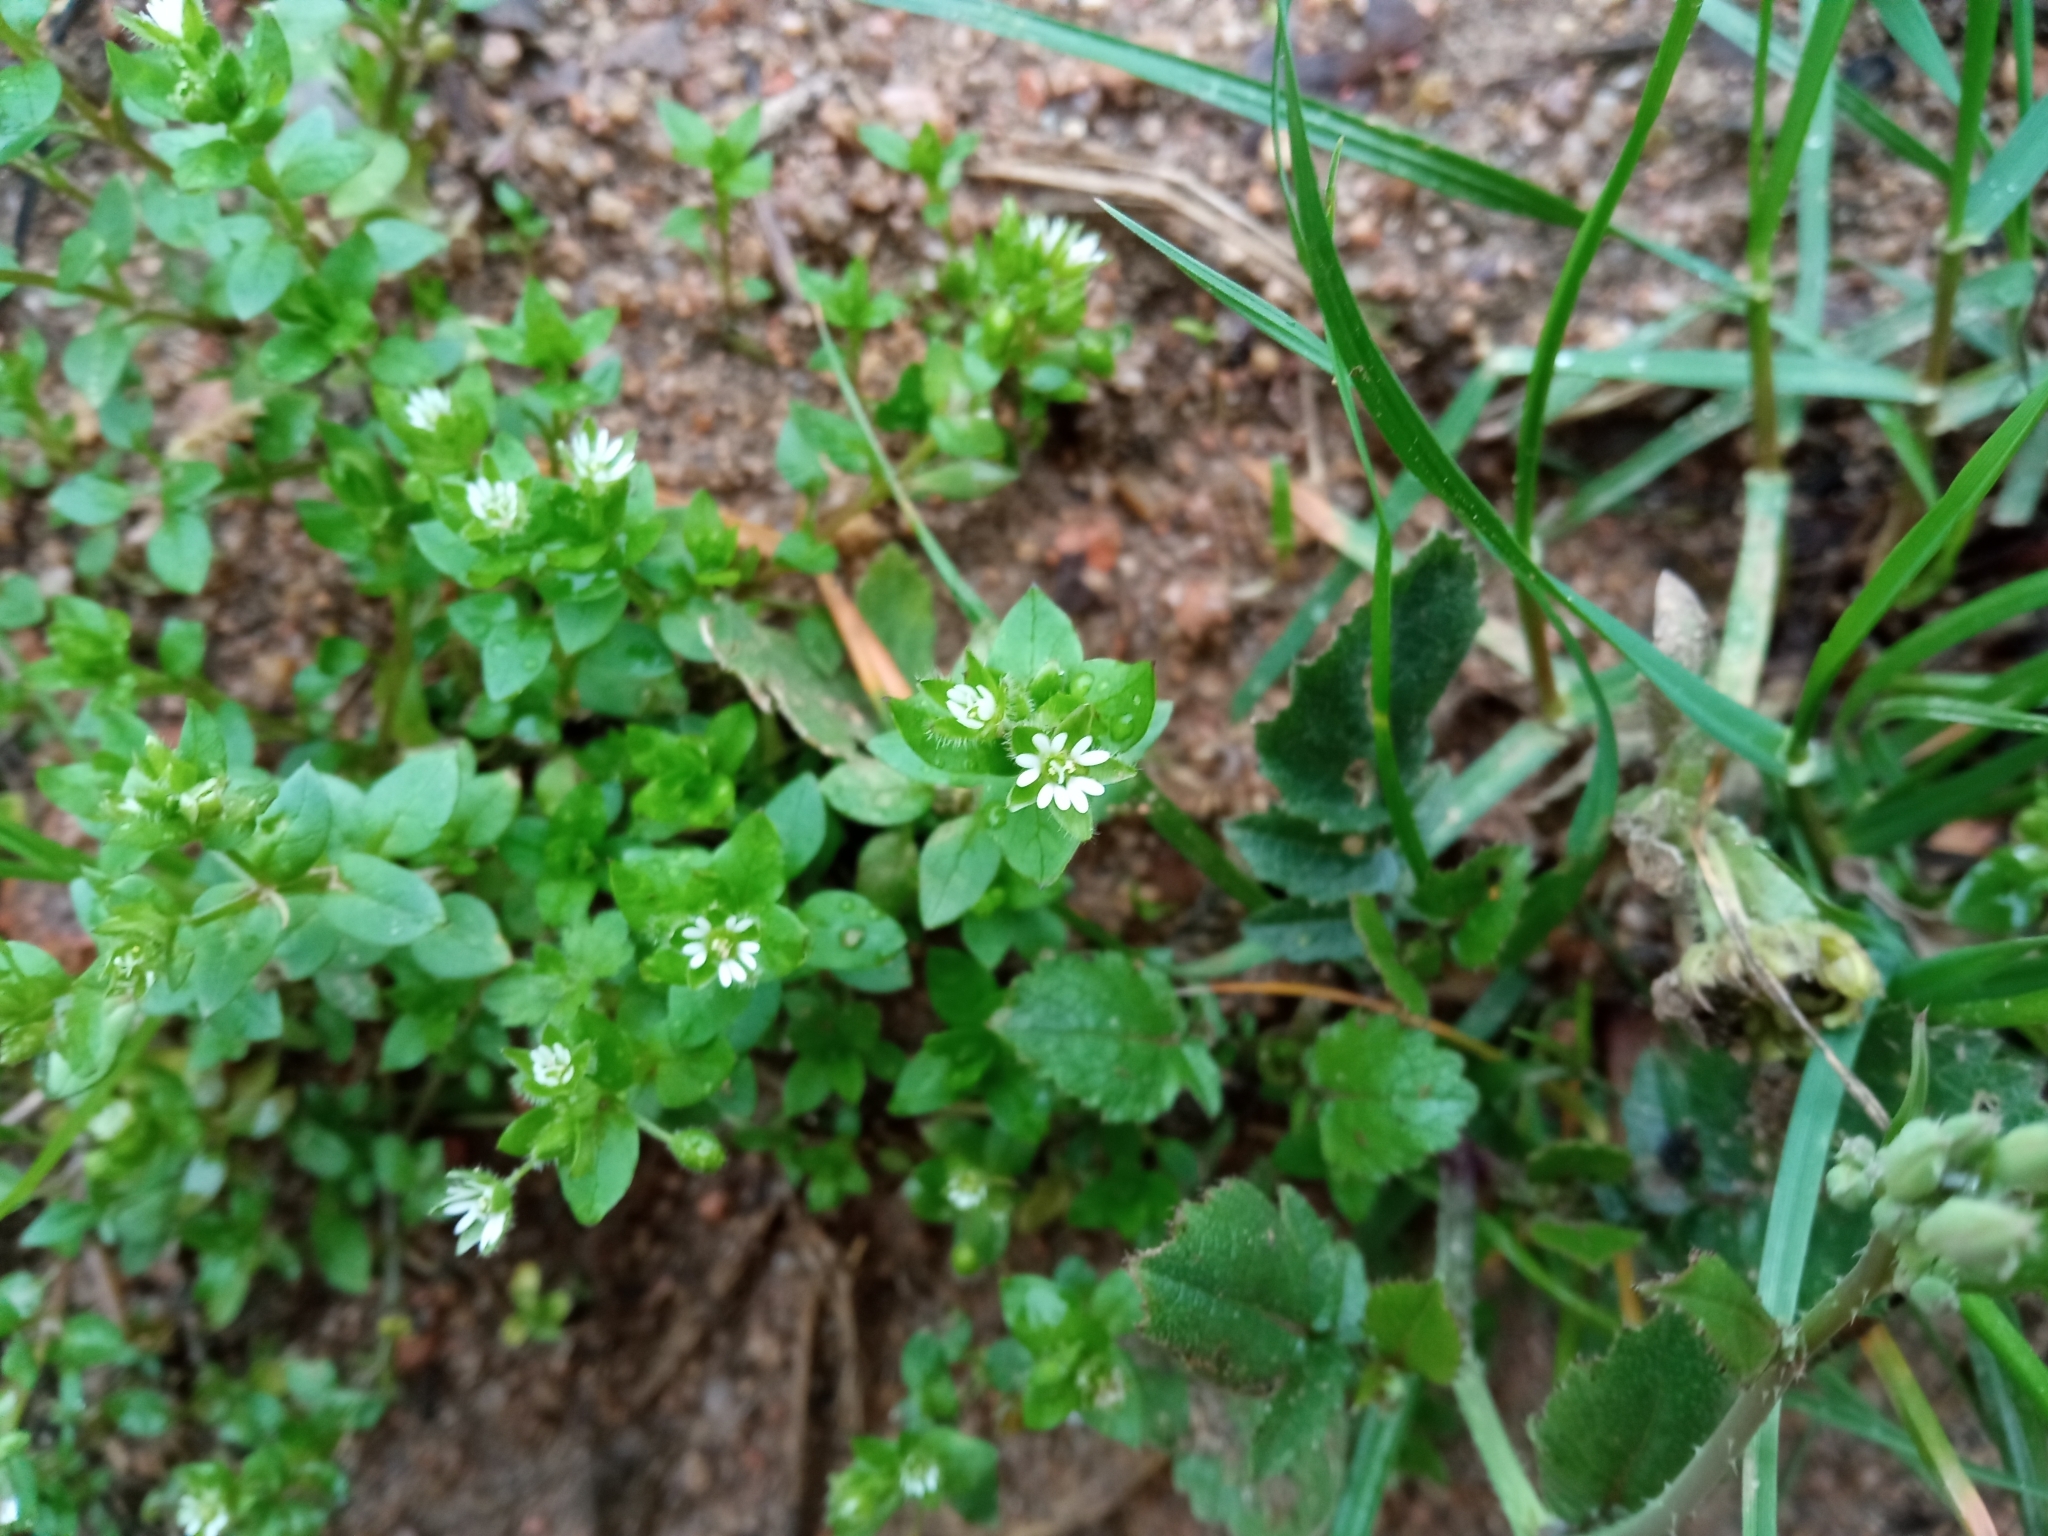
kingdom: Plantae
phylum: Tracheophyta
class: Magnoliopsida
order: Caryophyllales
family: Caryophyllaceae
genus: Stellaria
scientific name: Stellaria media
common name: Common chickweed
